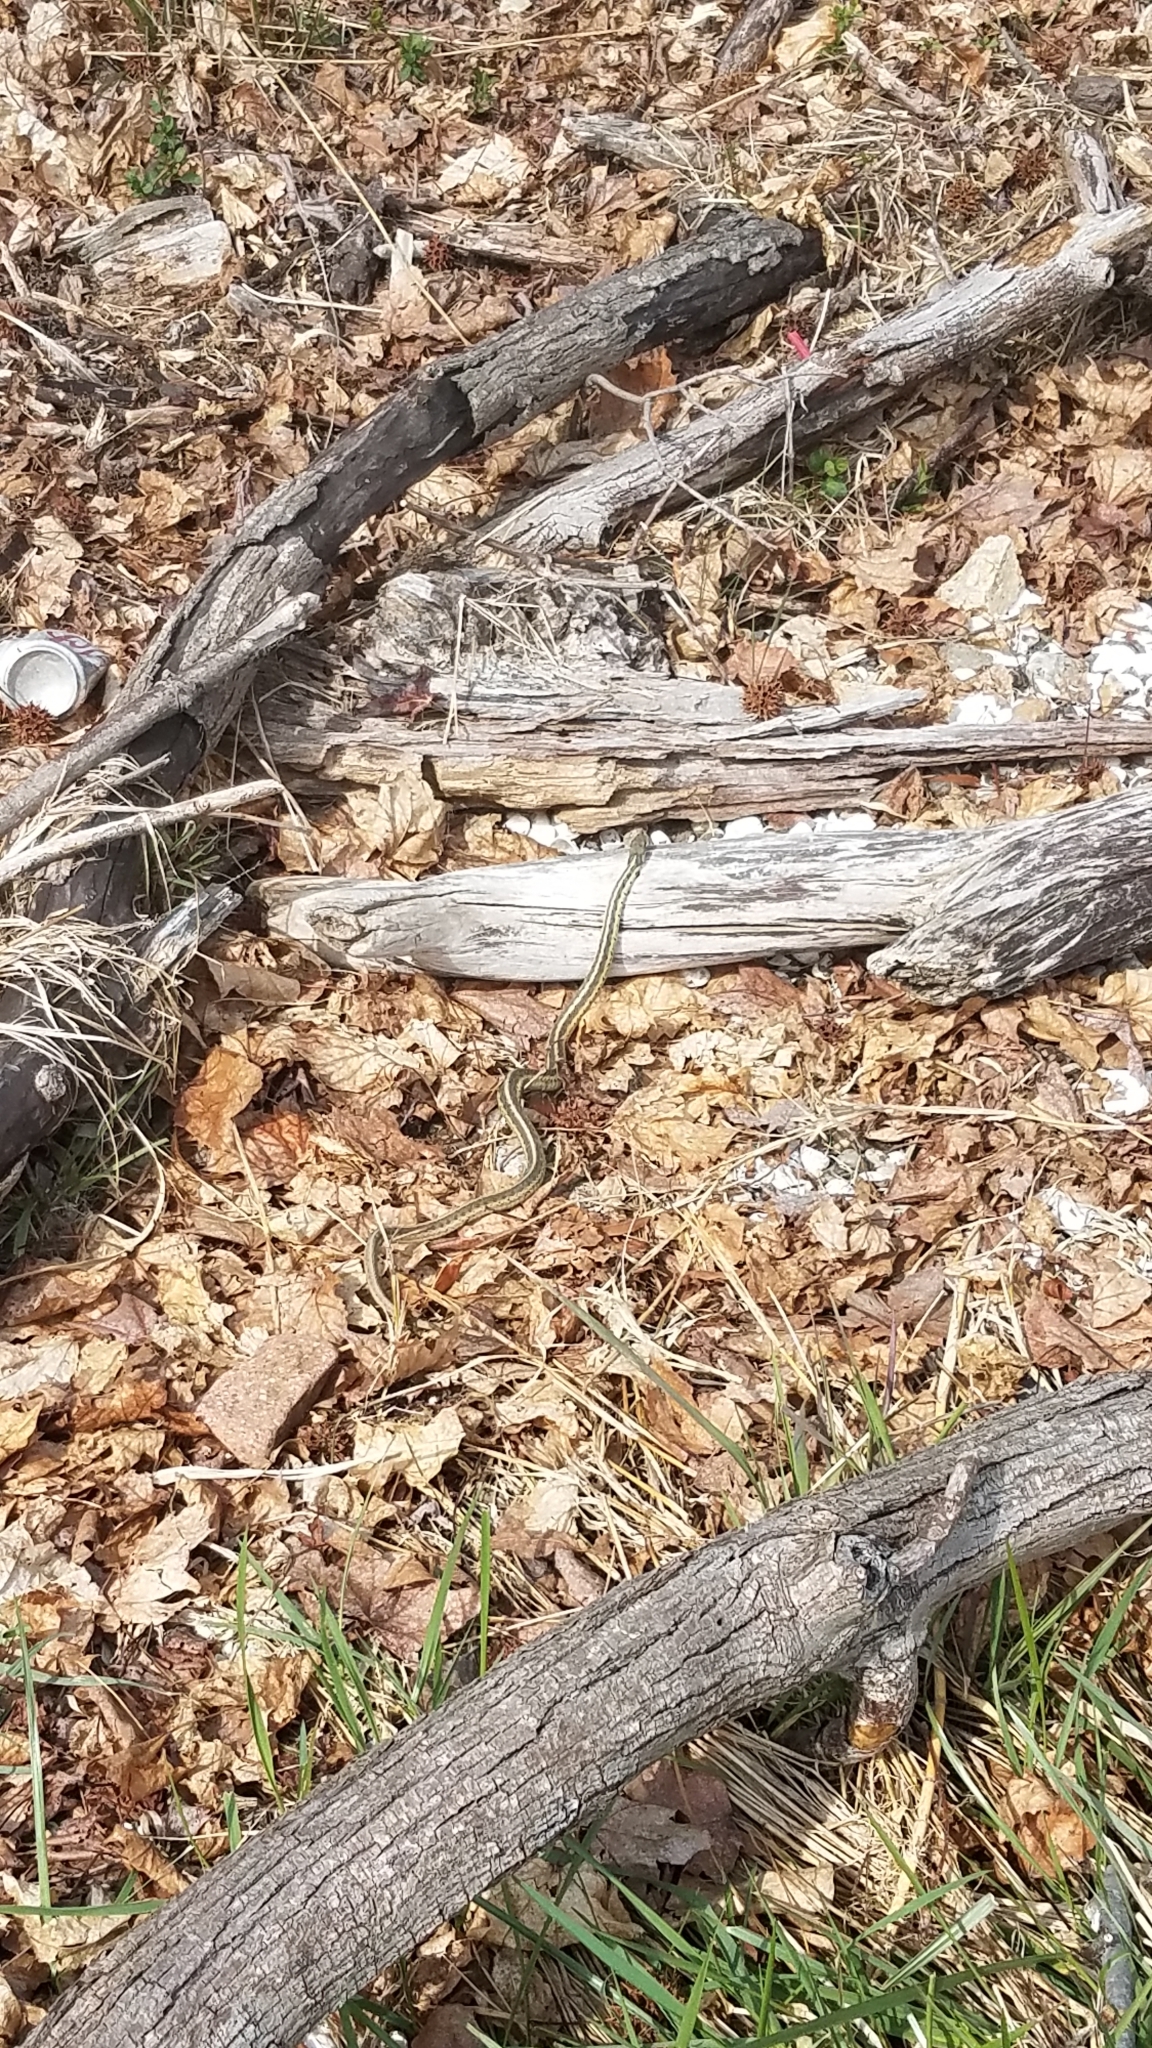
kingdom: Animalia
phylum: Chordata
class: Squamata
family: Colubridae
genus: Thamnophis
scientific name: Thamnophis sirtalis
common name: Common garter snake
